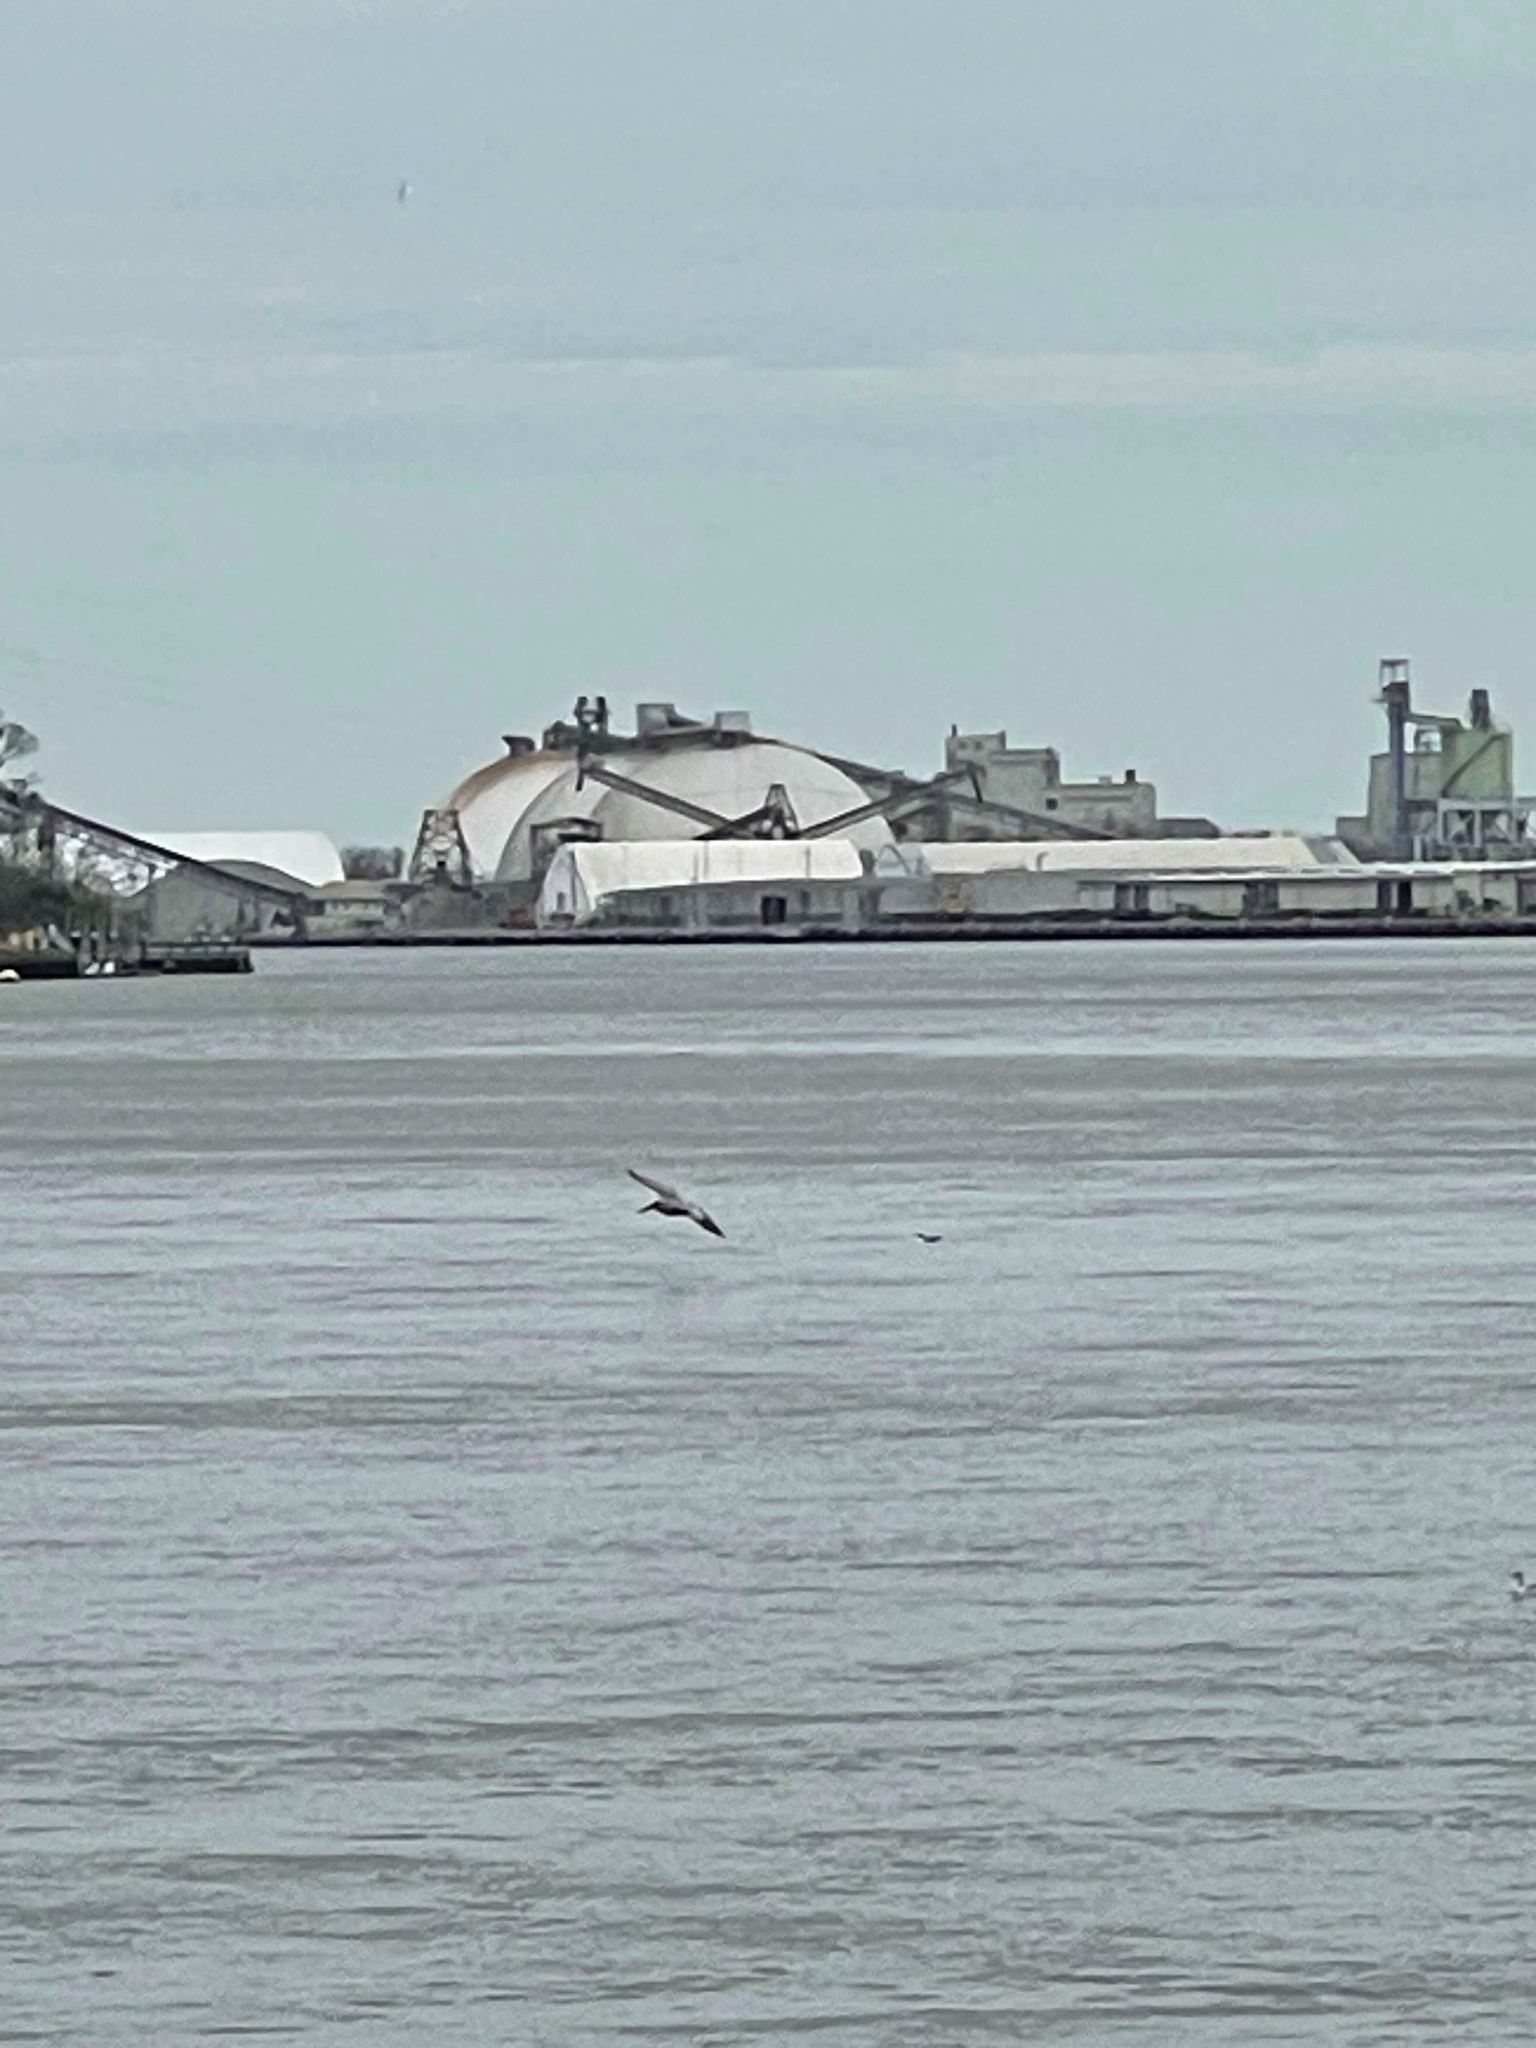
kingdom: Animalia
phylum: Chordata
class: Aves
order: Pelecaniformes
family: Pelecanidae
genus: Pelecanus
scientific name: Pelecanus occidentalis
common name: Brown pelican
